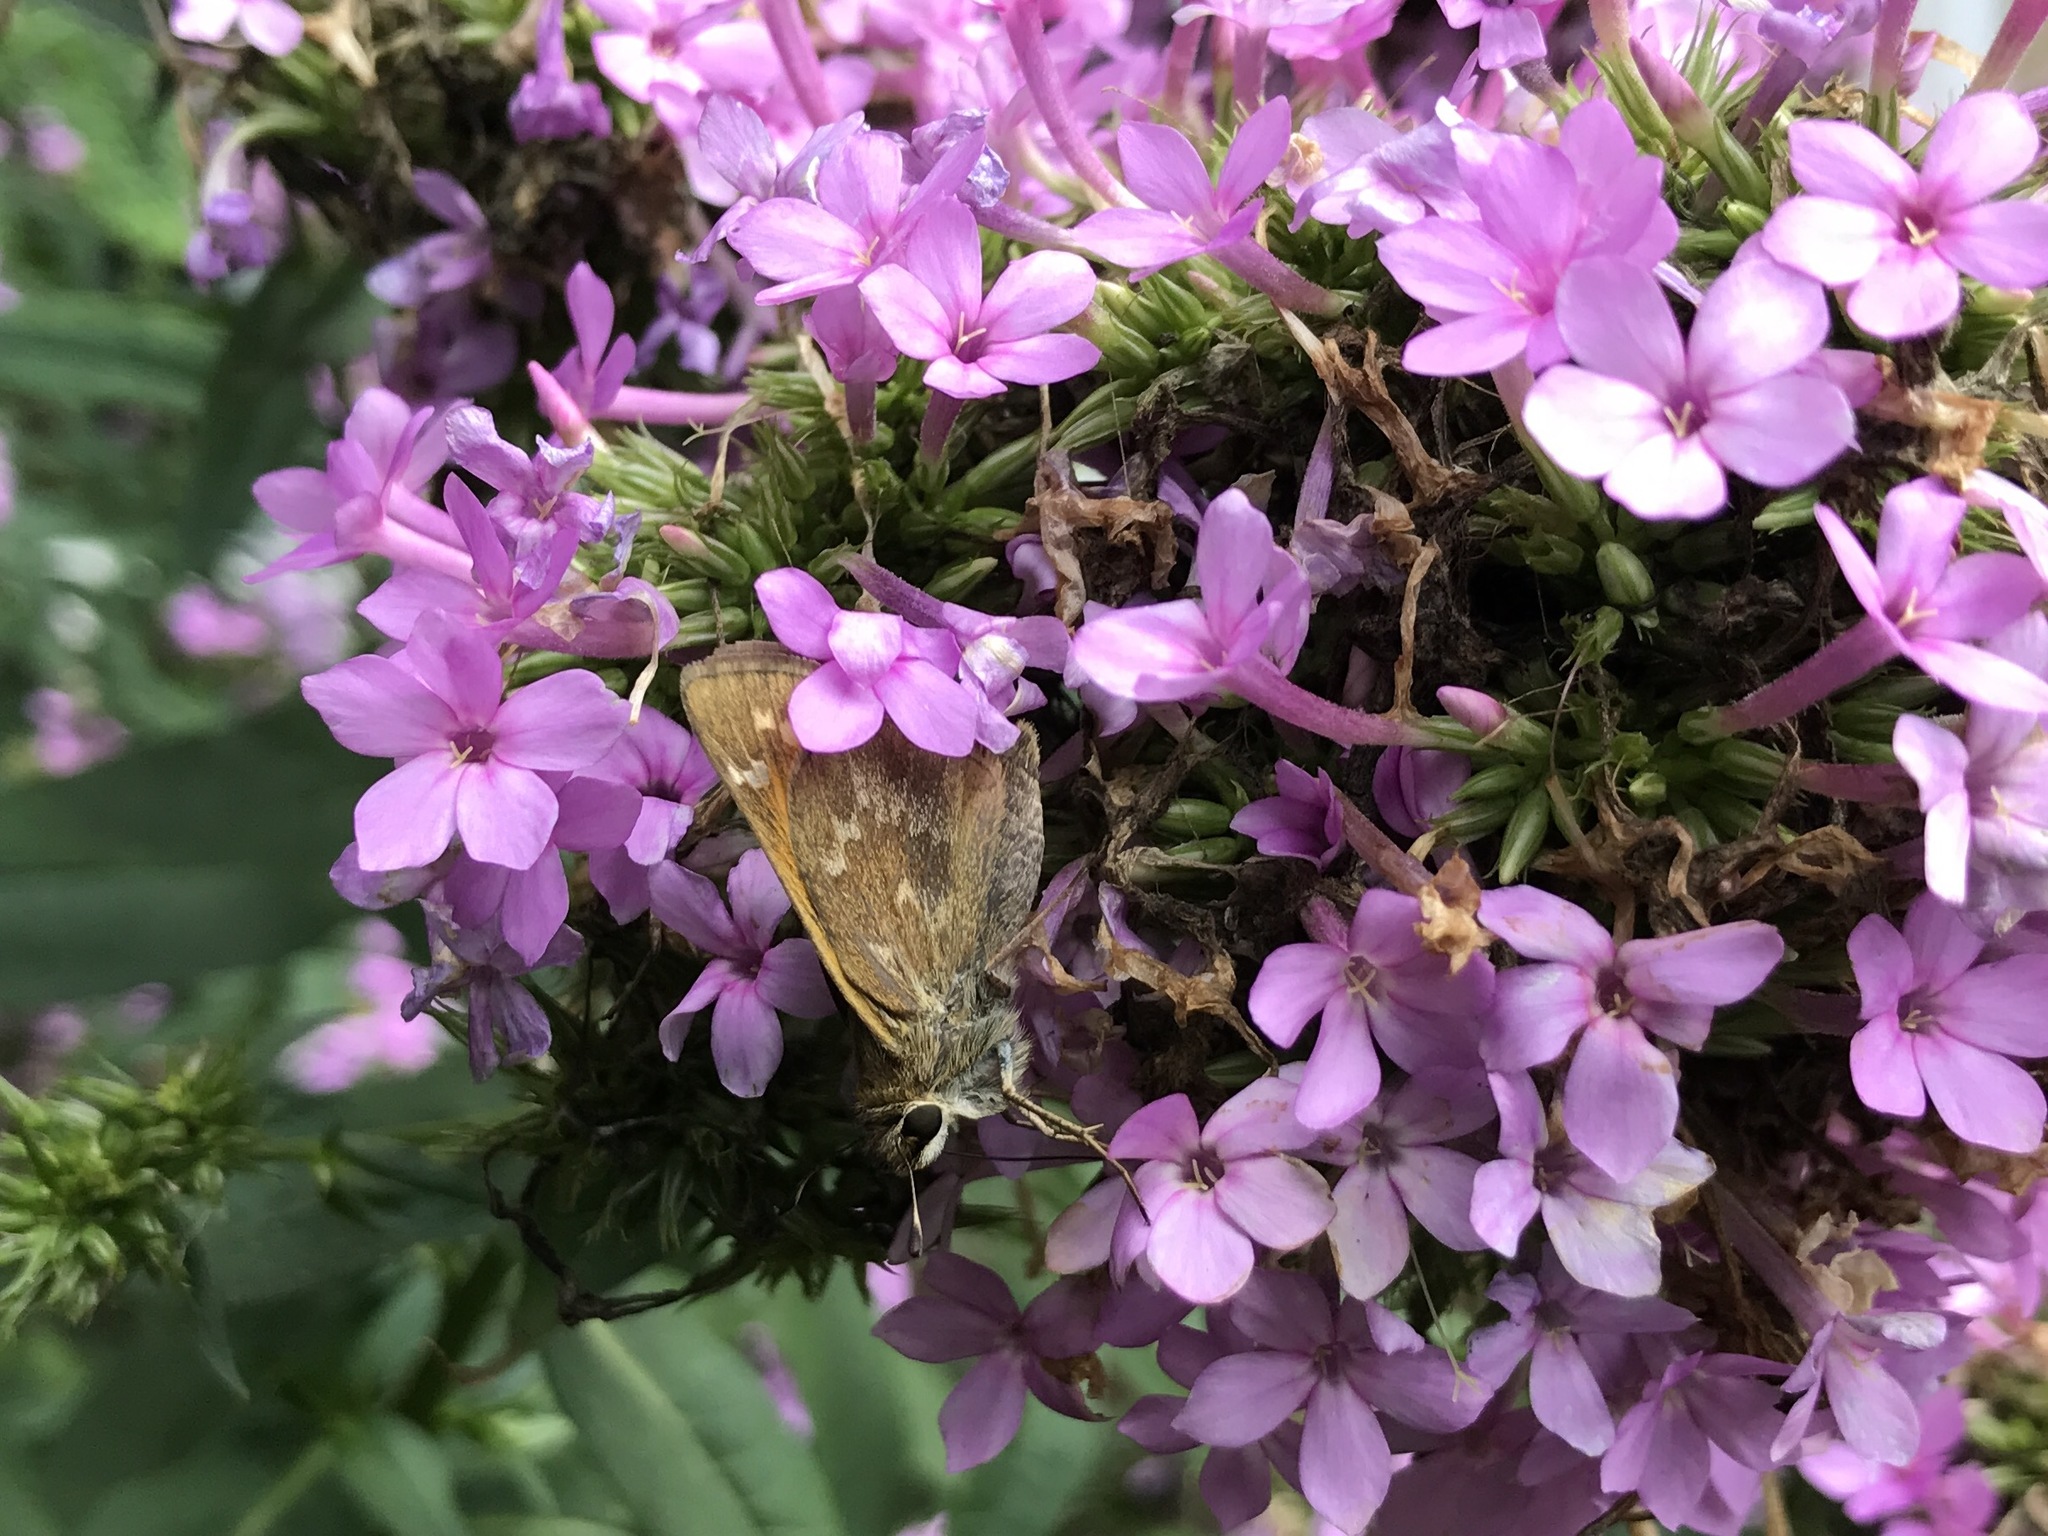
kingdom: Animalia
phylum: Arthropoda
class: Insecta
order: Lepidoptera
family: Hesperiidae
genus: Atalopedes
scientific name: Atalopedes
